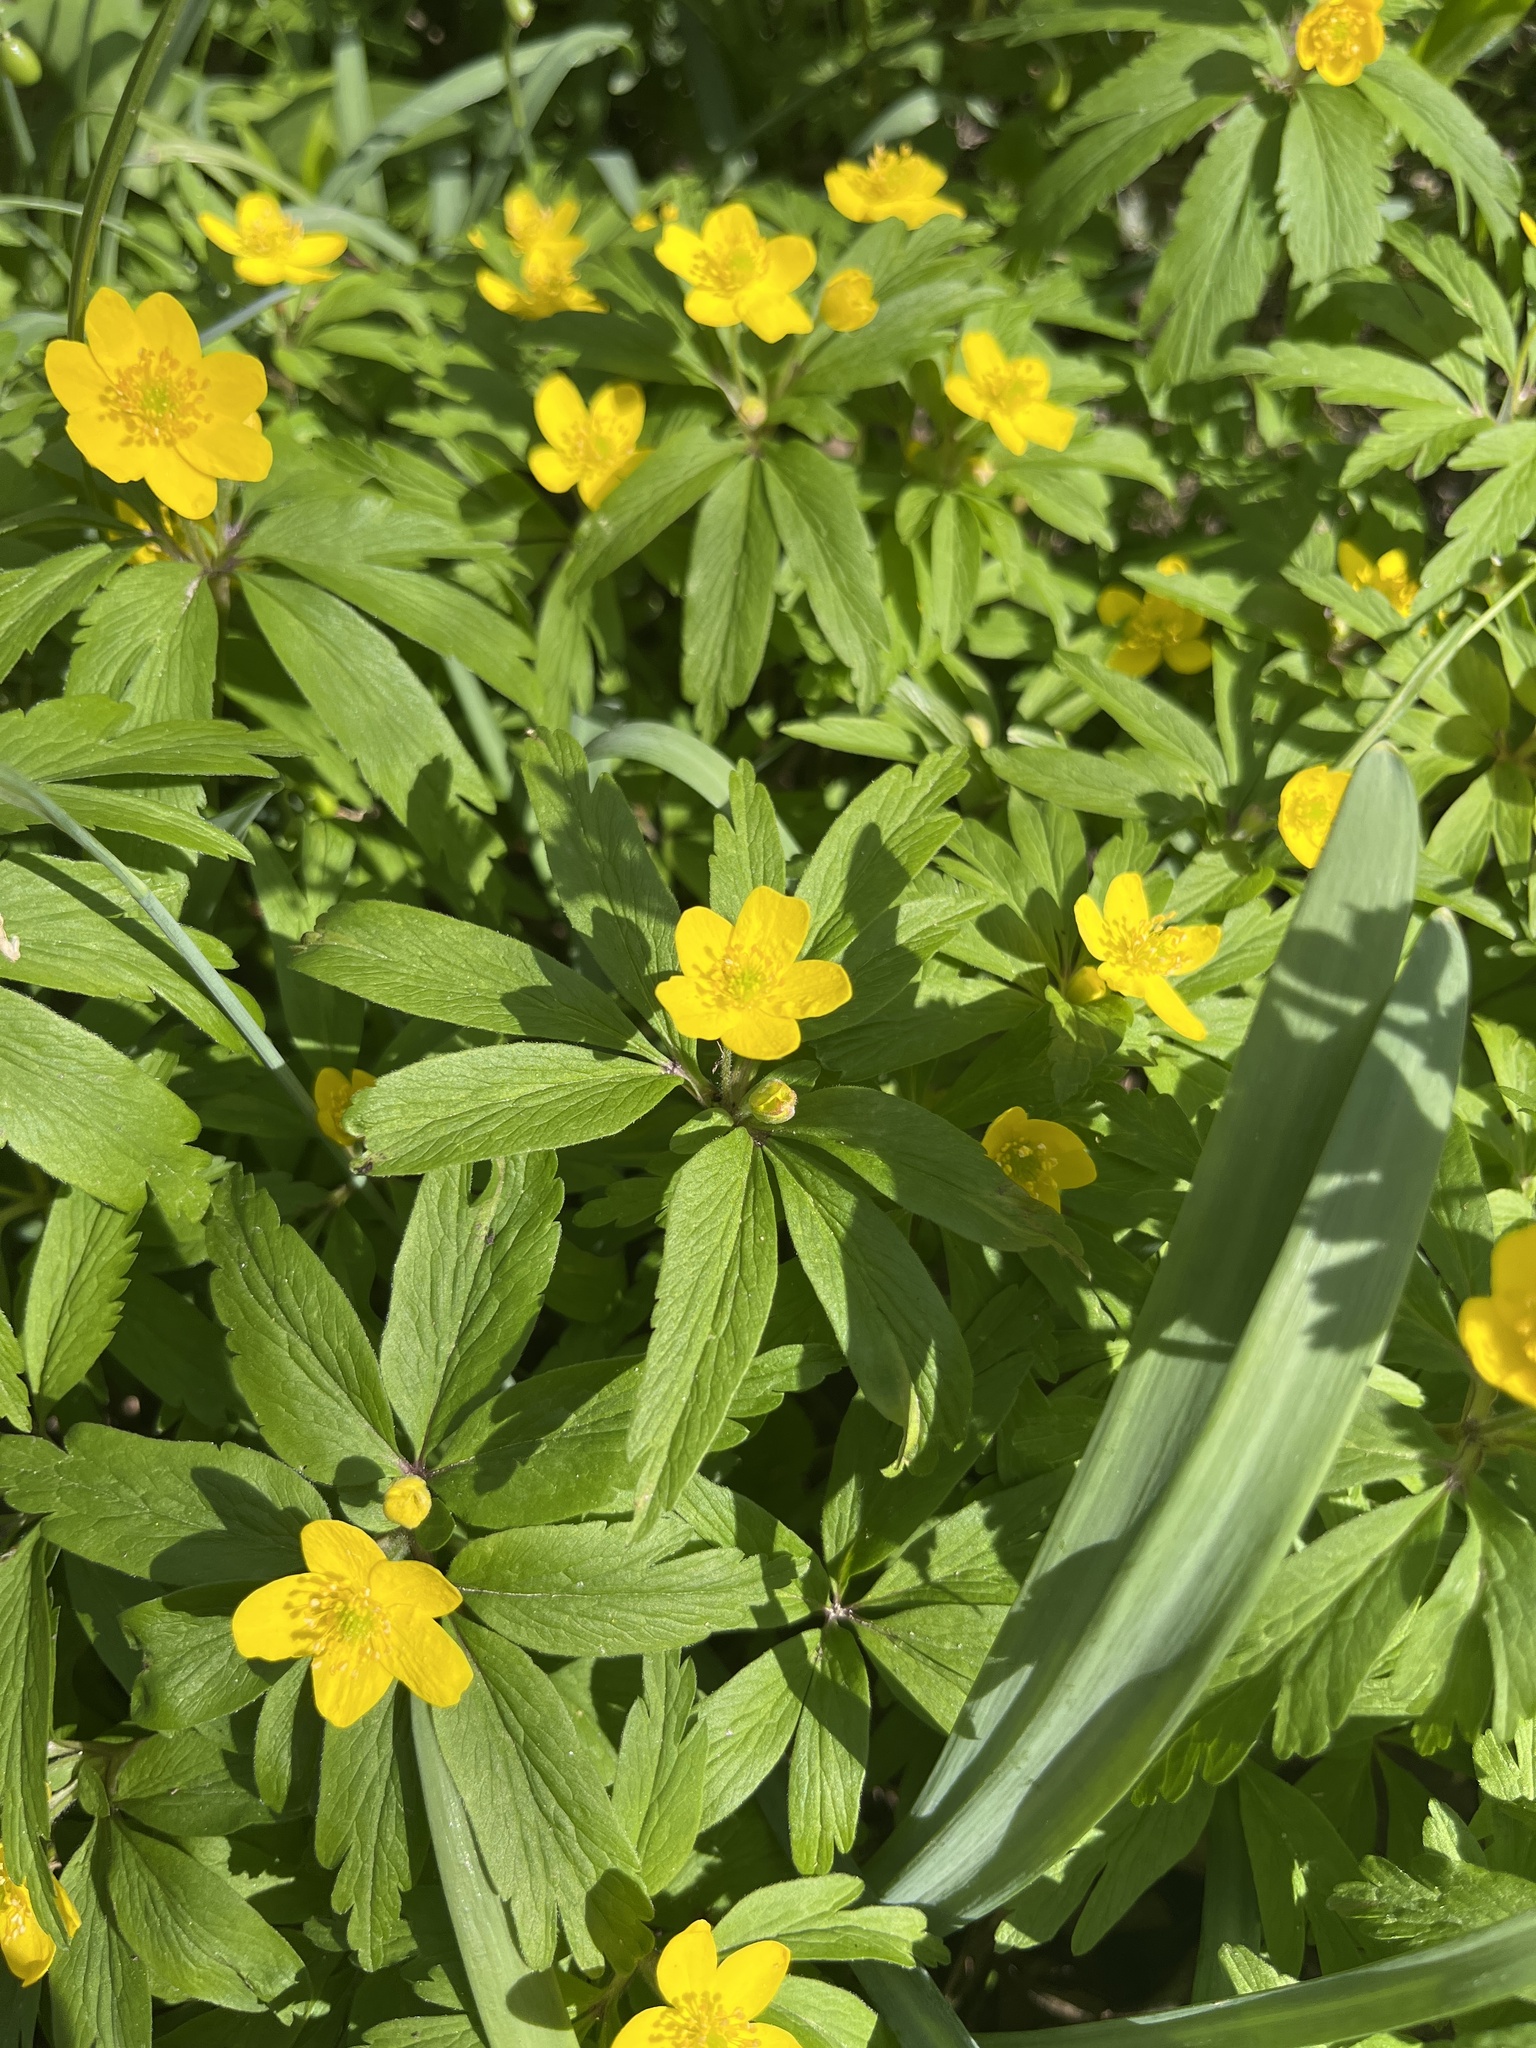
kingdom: Plantae
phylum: Tracheophyta
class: Magnoliopsida
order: Ranunculales
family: Ranunculaceae
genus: Anemone
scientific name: Anemone ranunculoides
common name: Yellow anemone
